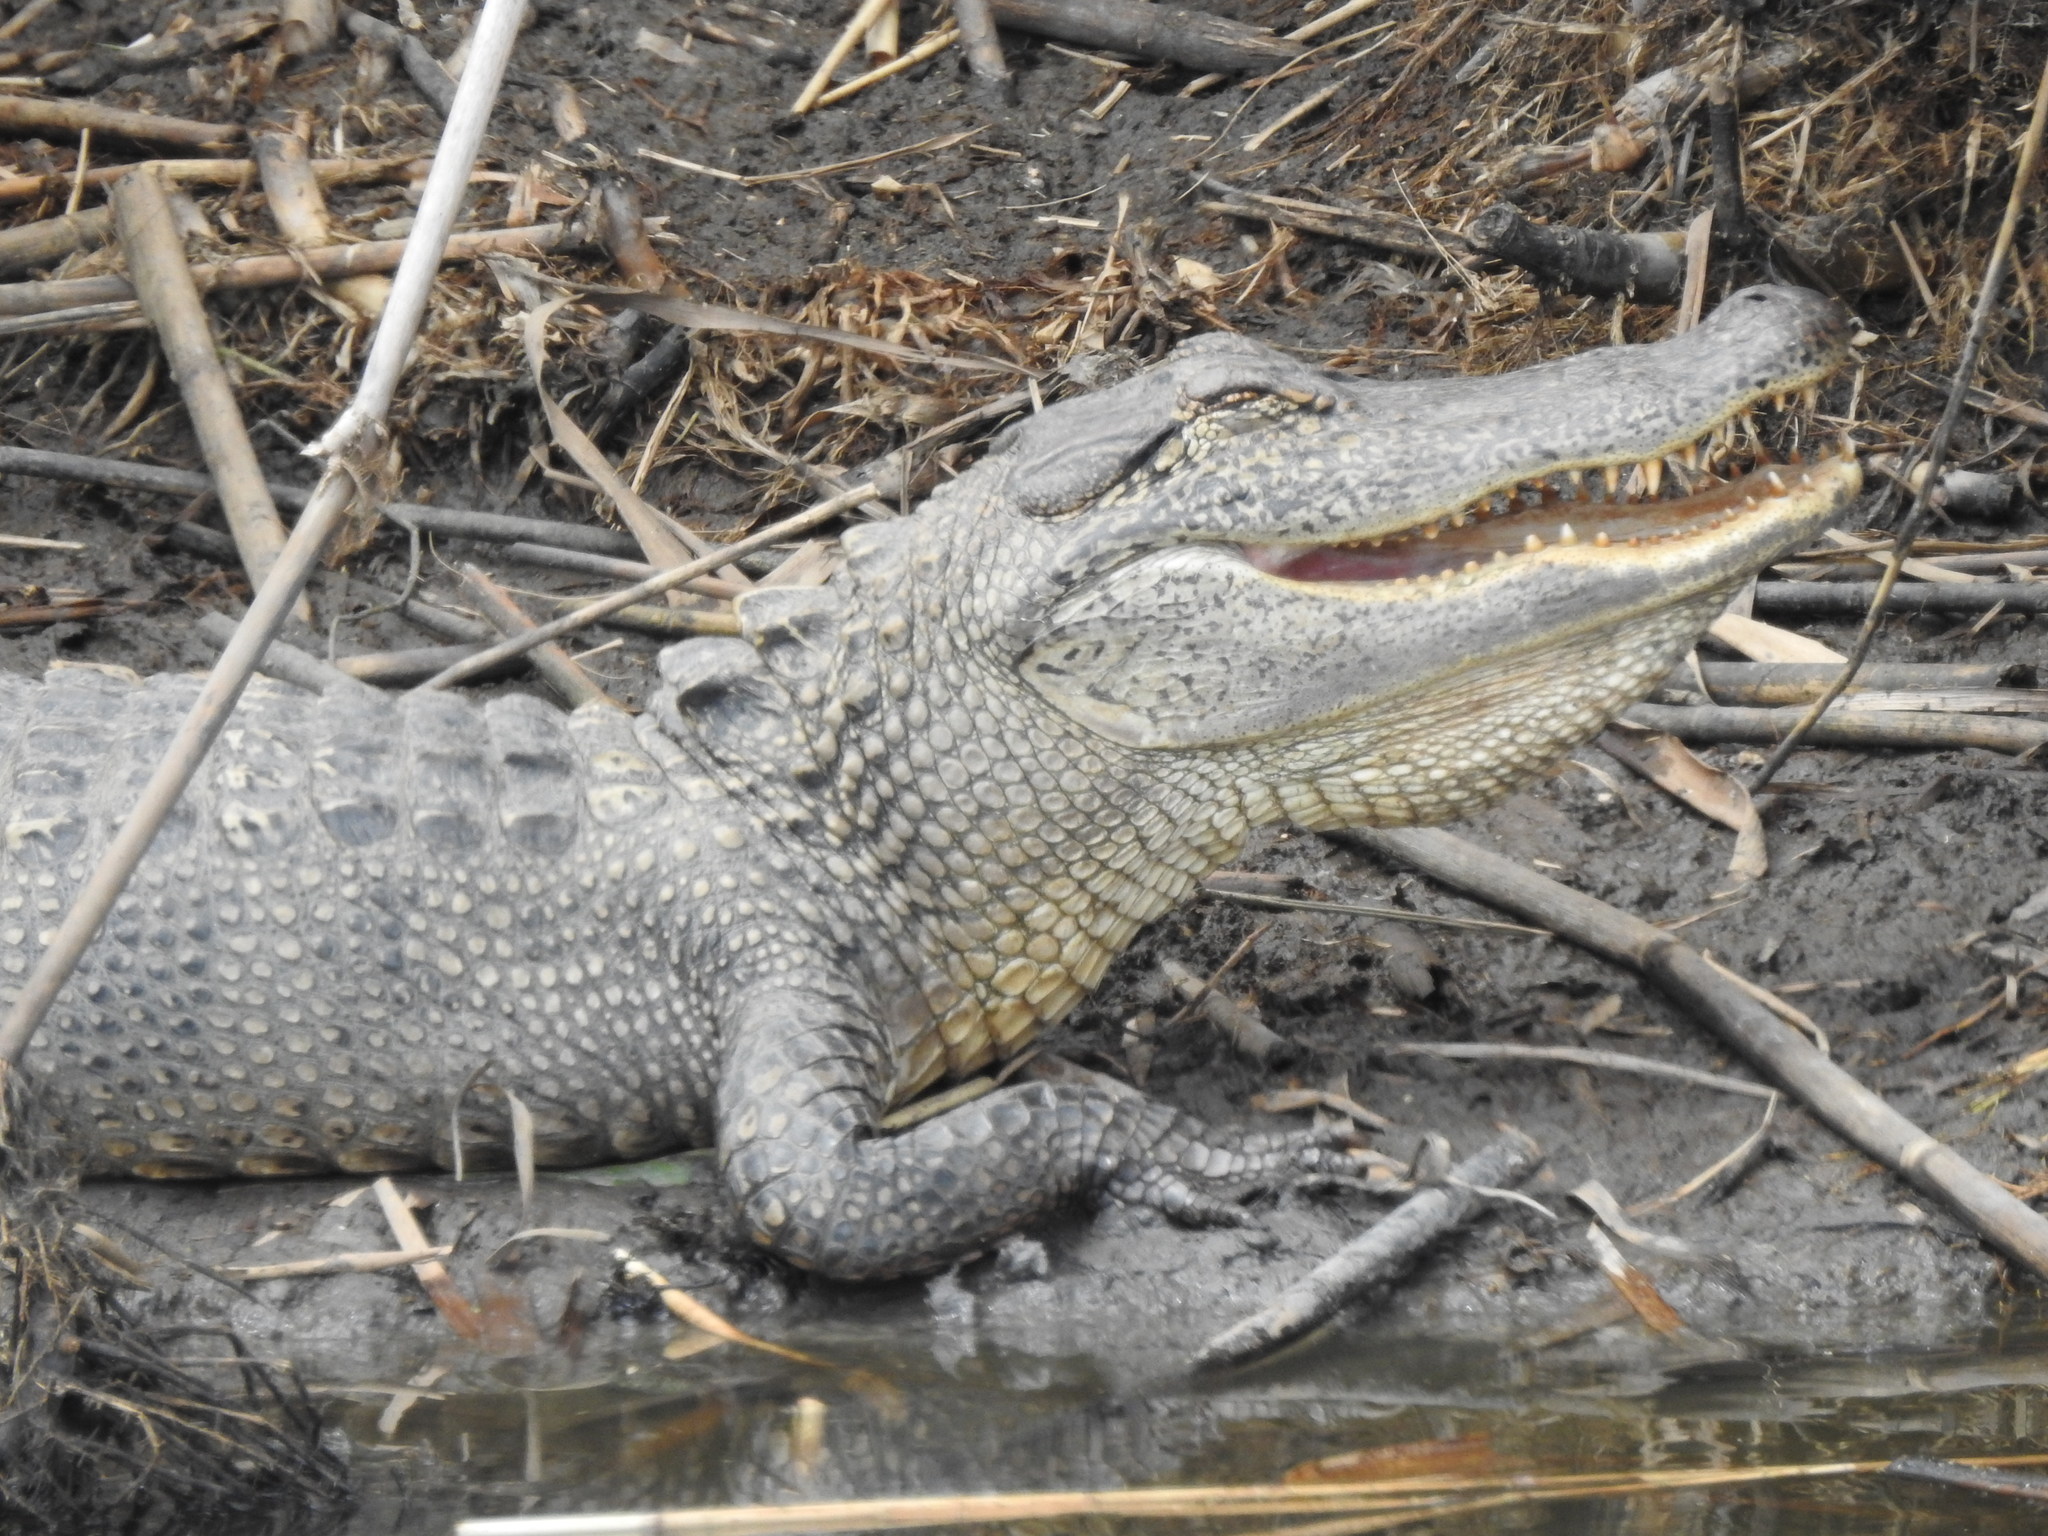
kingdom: Animalia
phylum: Chordata
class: Crocodylia
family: Alligatoridae
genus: Alligator
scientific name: Alligator mississippiensis
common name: American alligator
